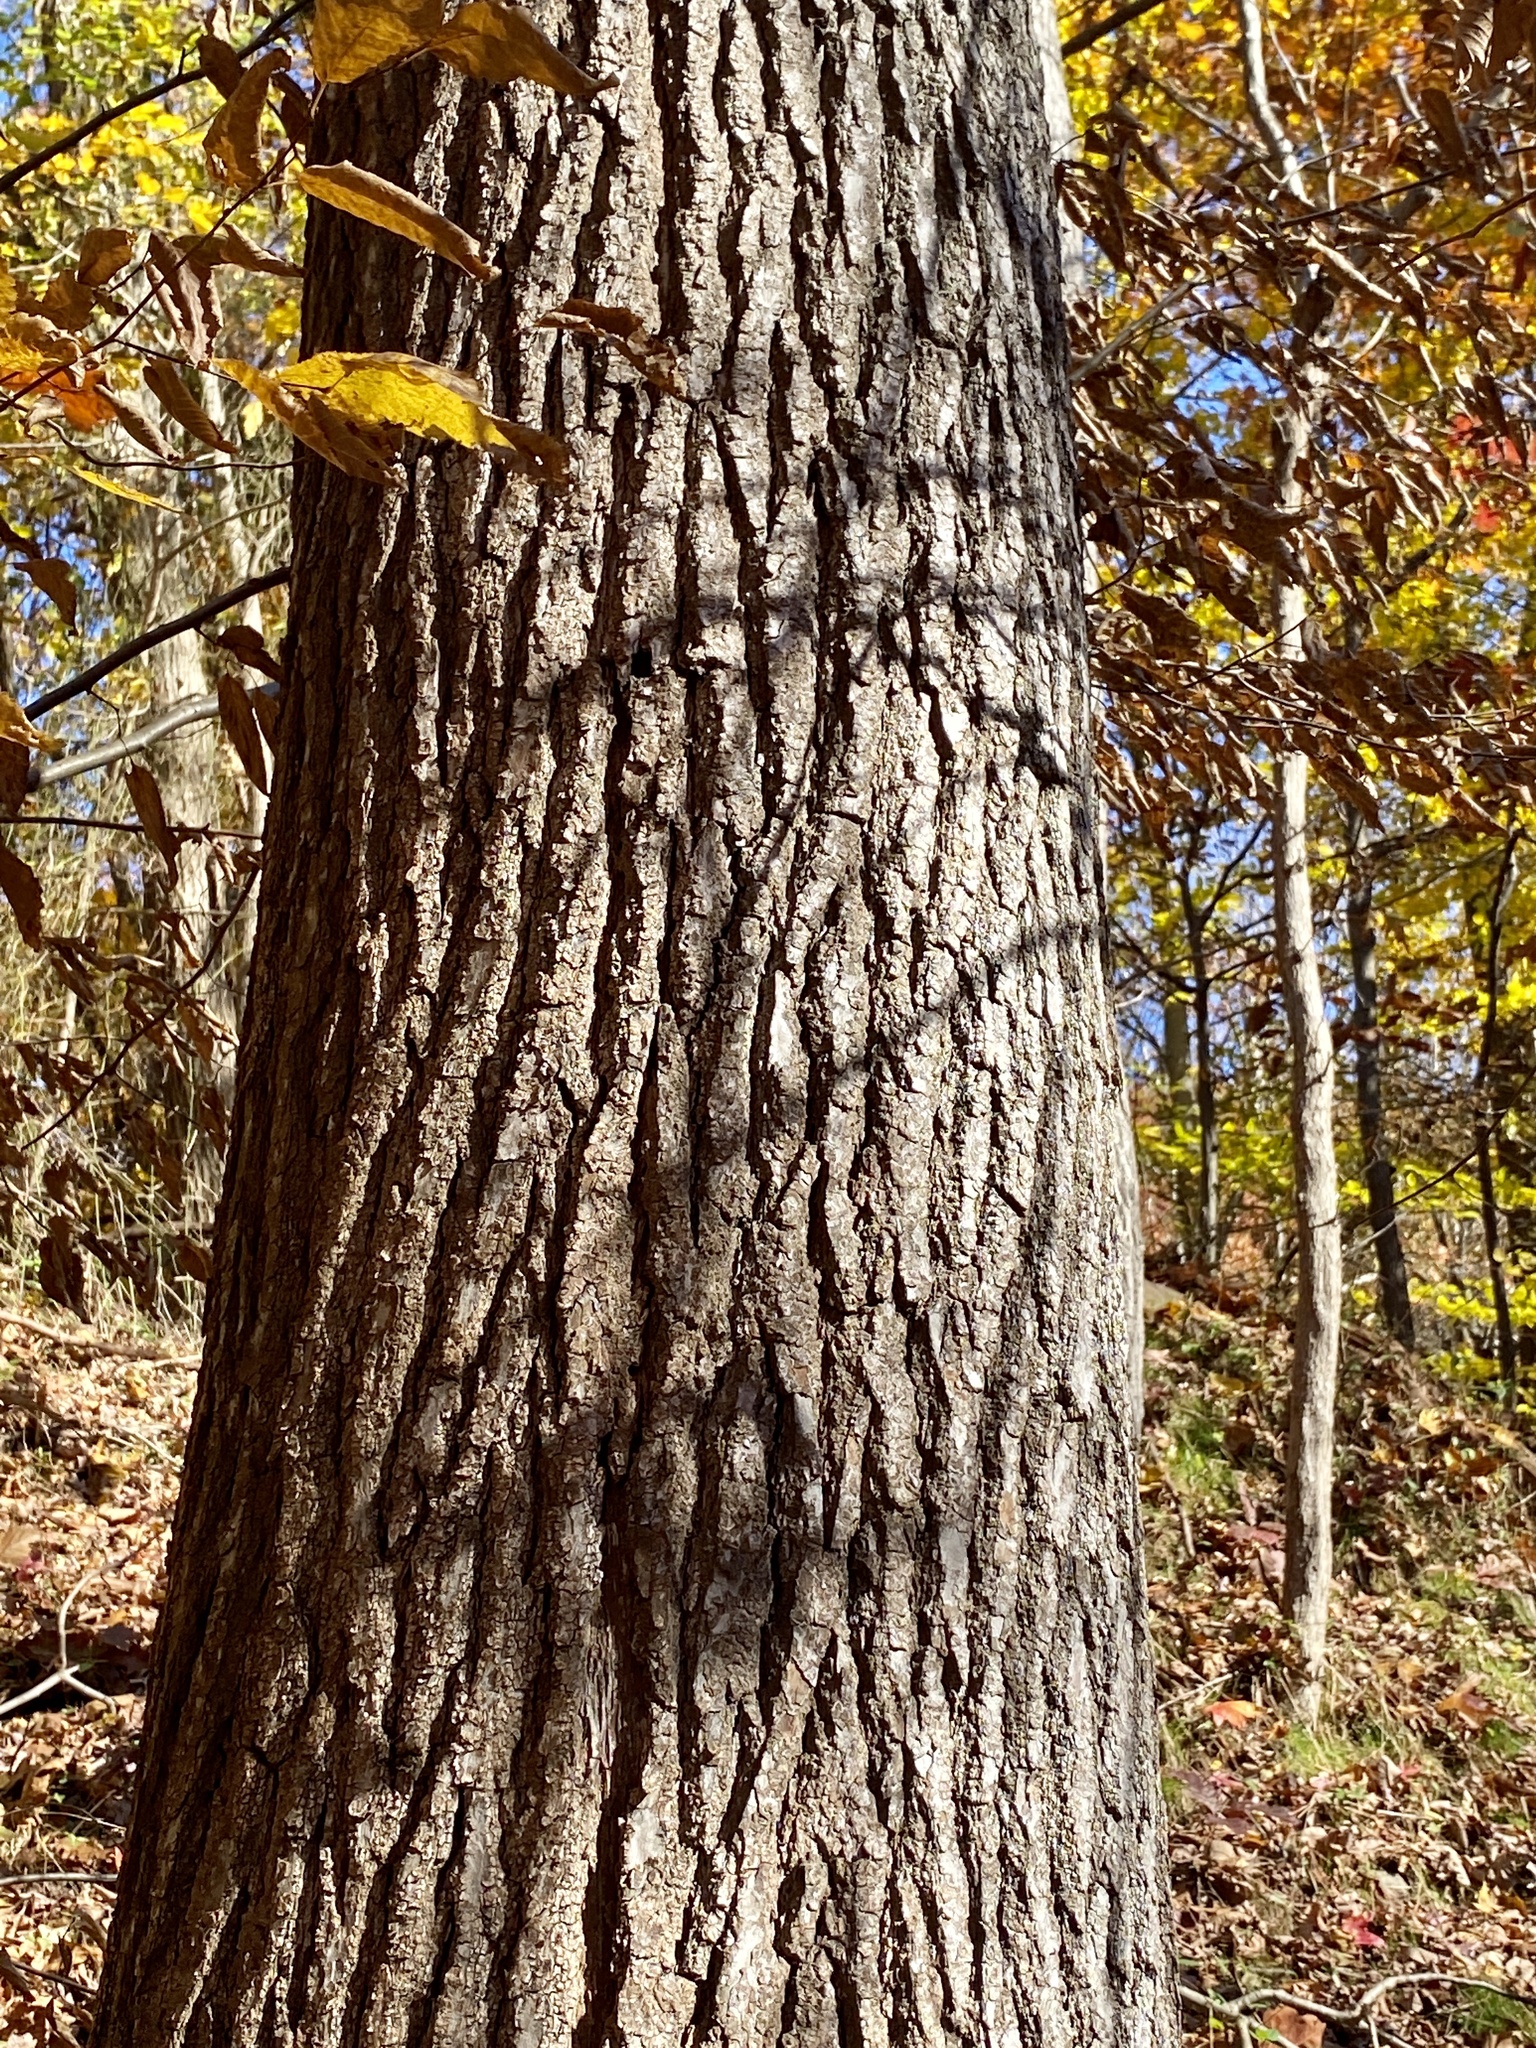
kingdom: Plantae
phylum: Tracheophyta
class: Magnoliopsida
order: Saxifragales
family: Altingiaceae
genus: Liquidambar
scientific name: Liquidambar styraciflua
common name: Sweet gum
